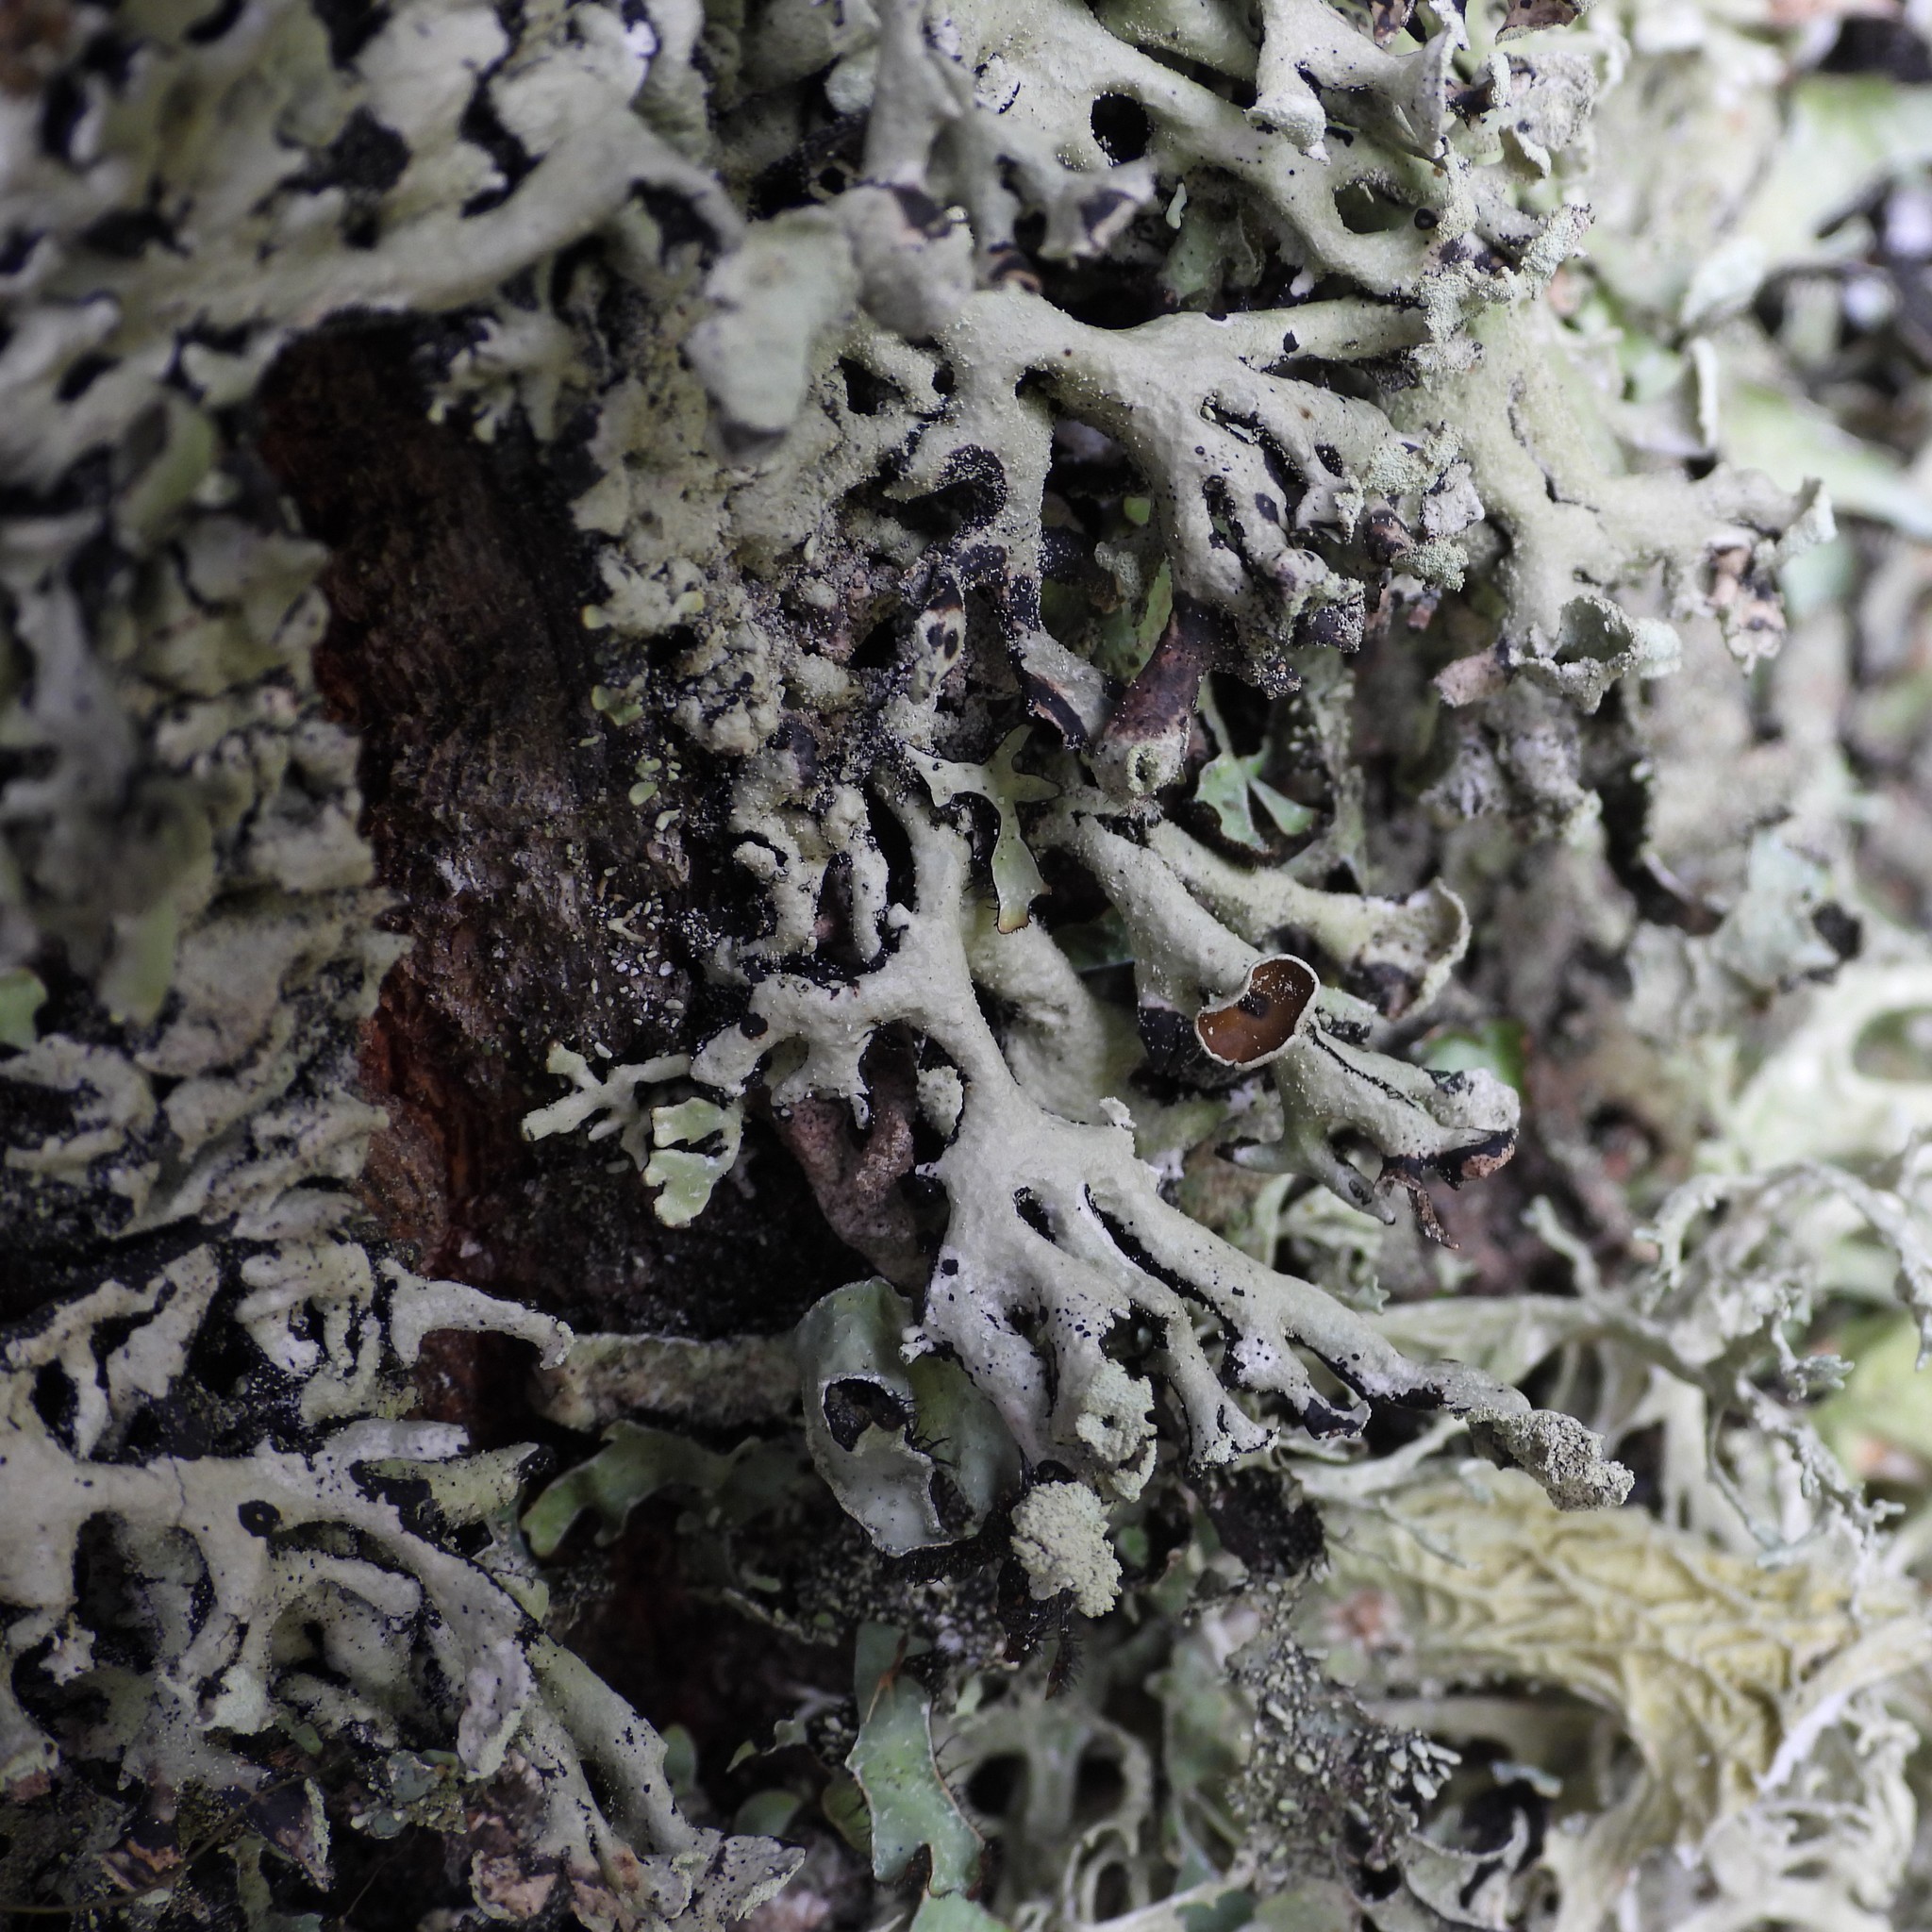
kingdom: Fungi
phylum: Ascomycota
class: Lecanoromycetes
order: Lecanorales
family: Parmeliaceae
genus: Hypogymnia
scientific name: Hypogymnia physodes
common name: Dark crottle
